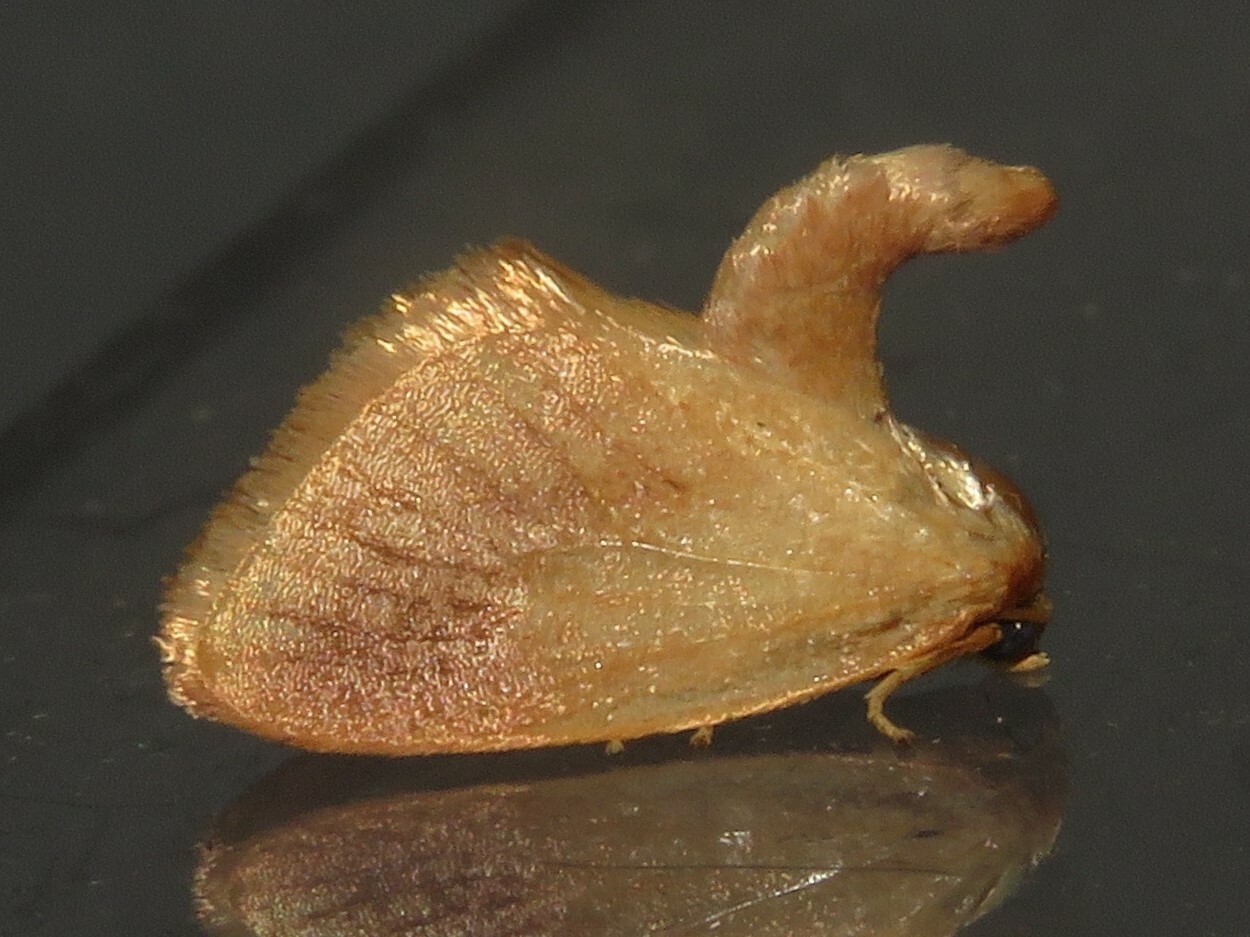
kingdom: Animalia
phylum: Arthropoda
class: Insecta
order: Lepidoptera
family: Limacodidae
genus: Tortricidia
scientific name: Tortricidia testacea
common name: Early button slug moth
